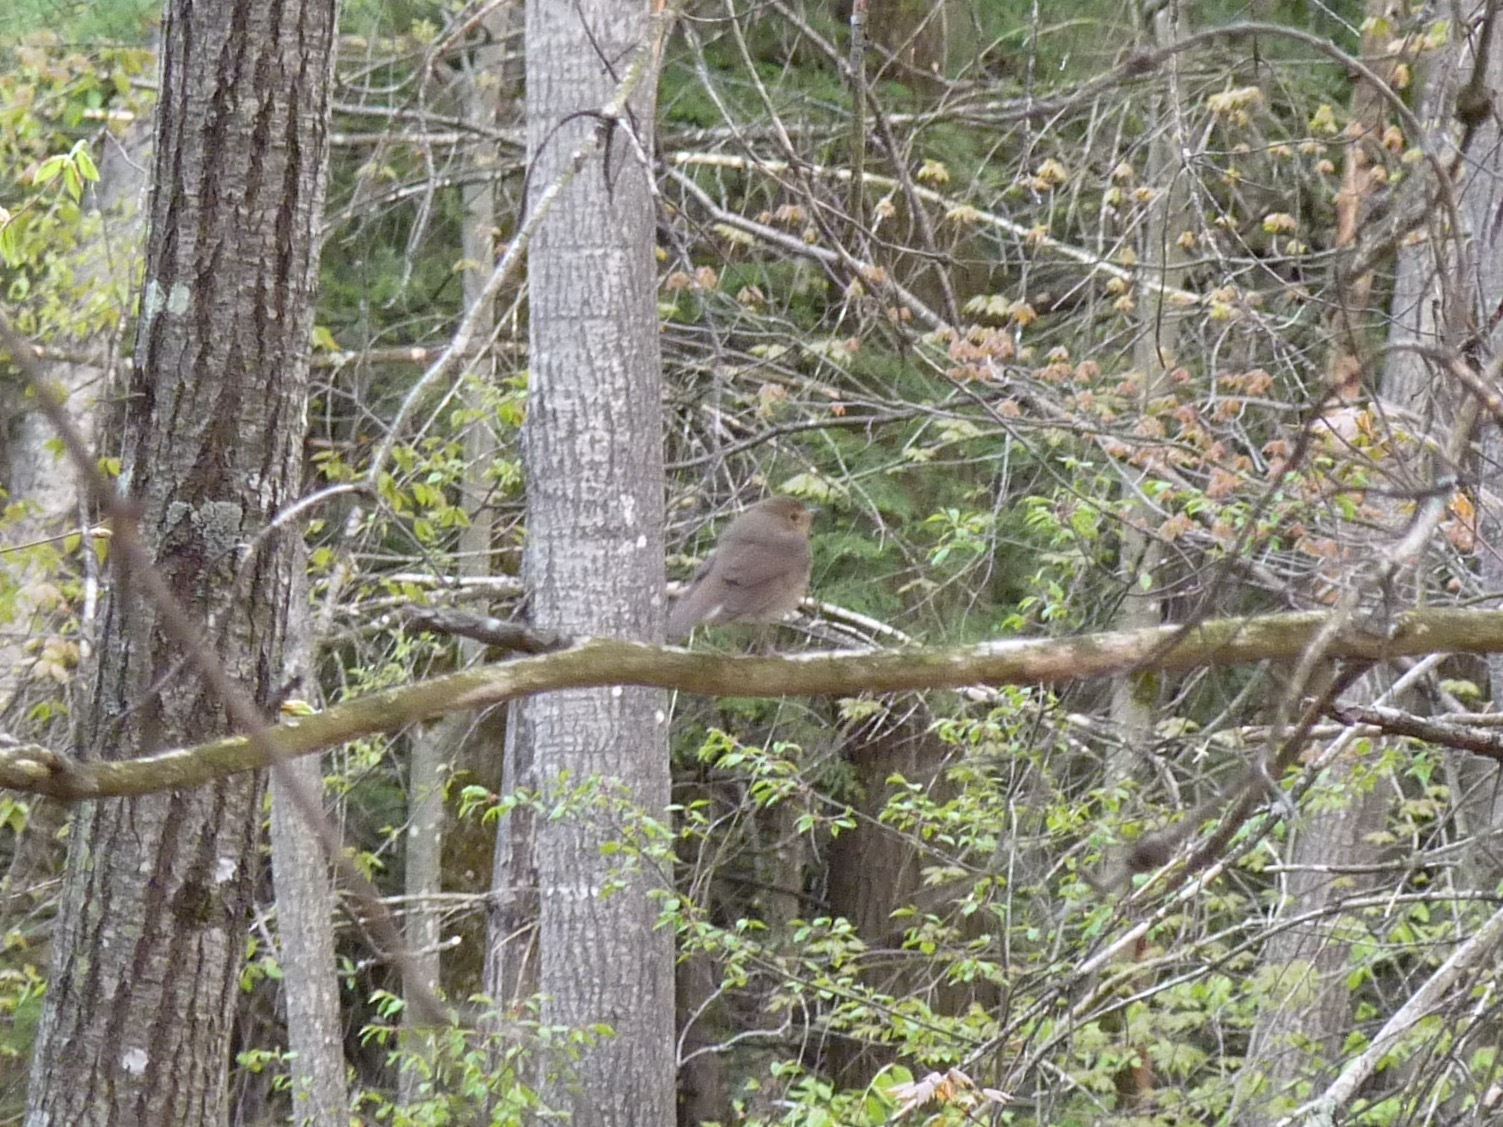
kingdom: Animalia
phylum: Chordata
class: Aves
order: Passeriformes
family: Turdidae
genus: Catharus
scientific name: Catharus ustulatus
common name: Swainson's thrush
